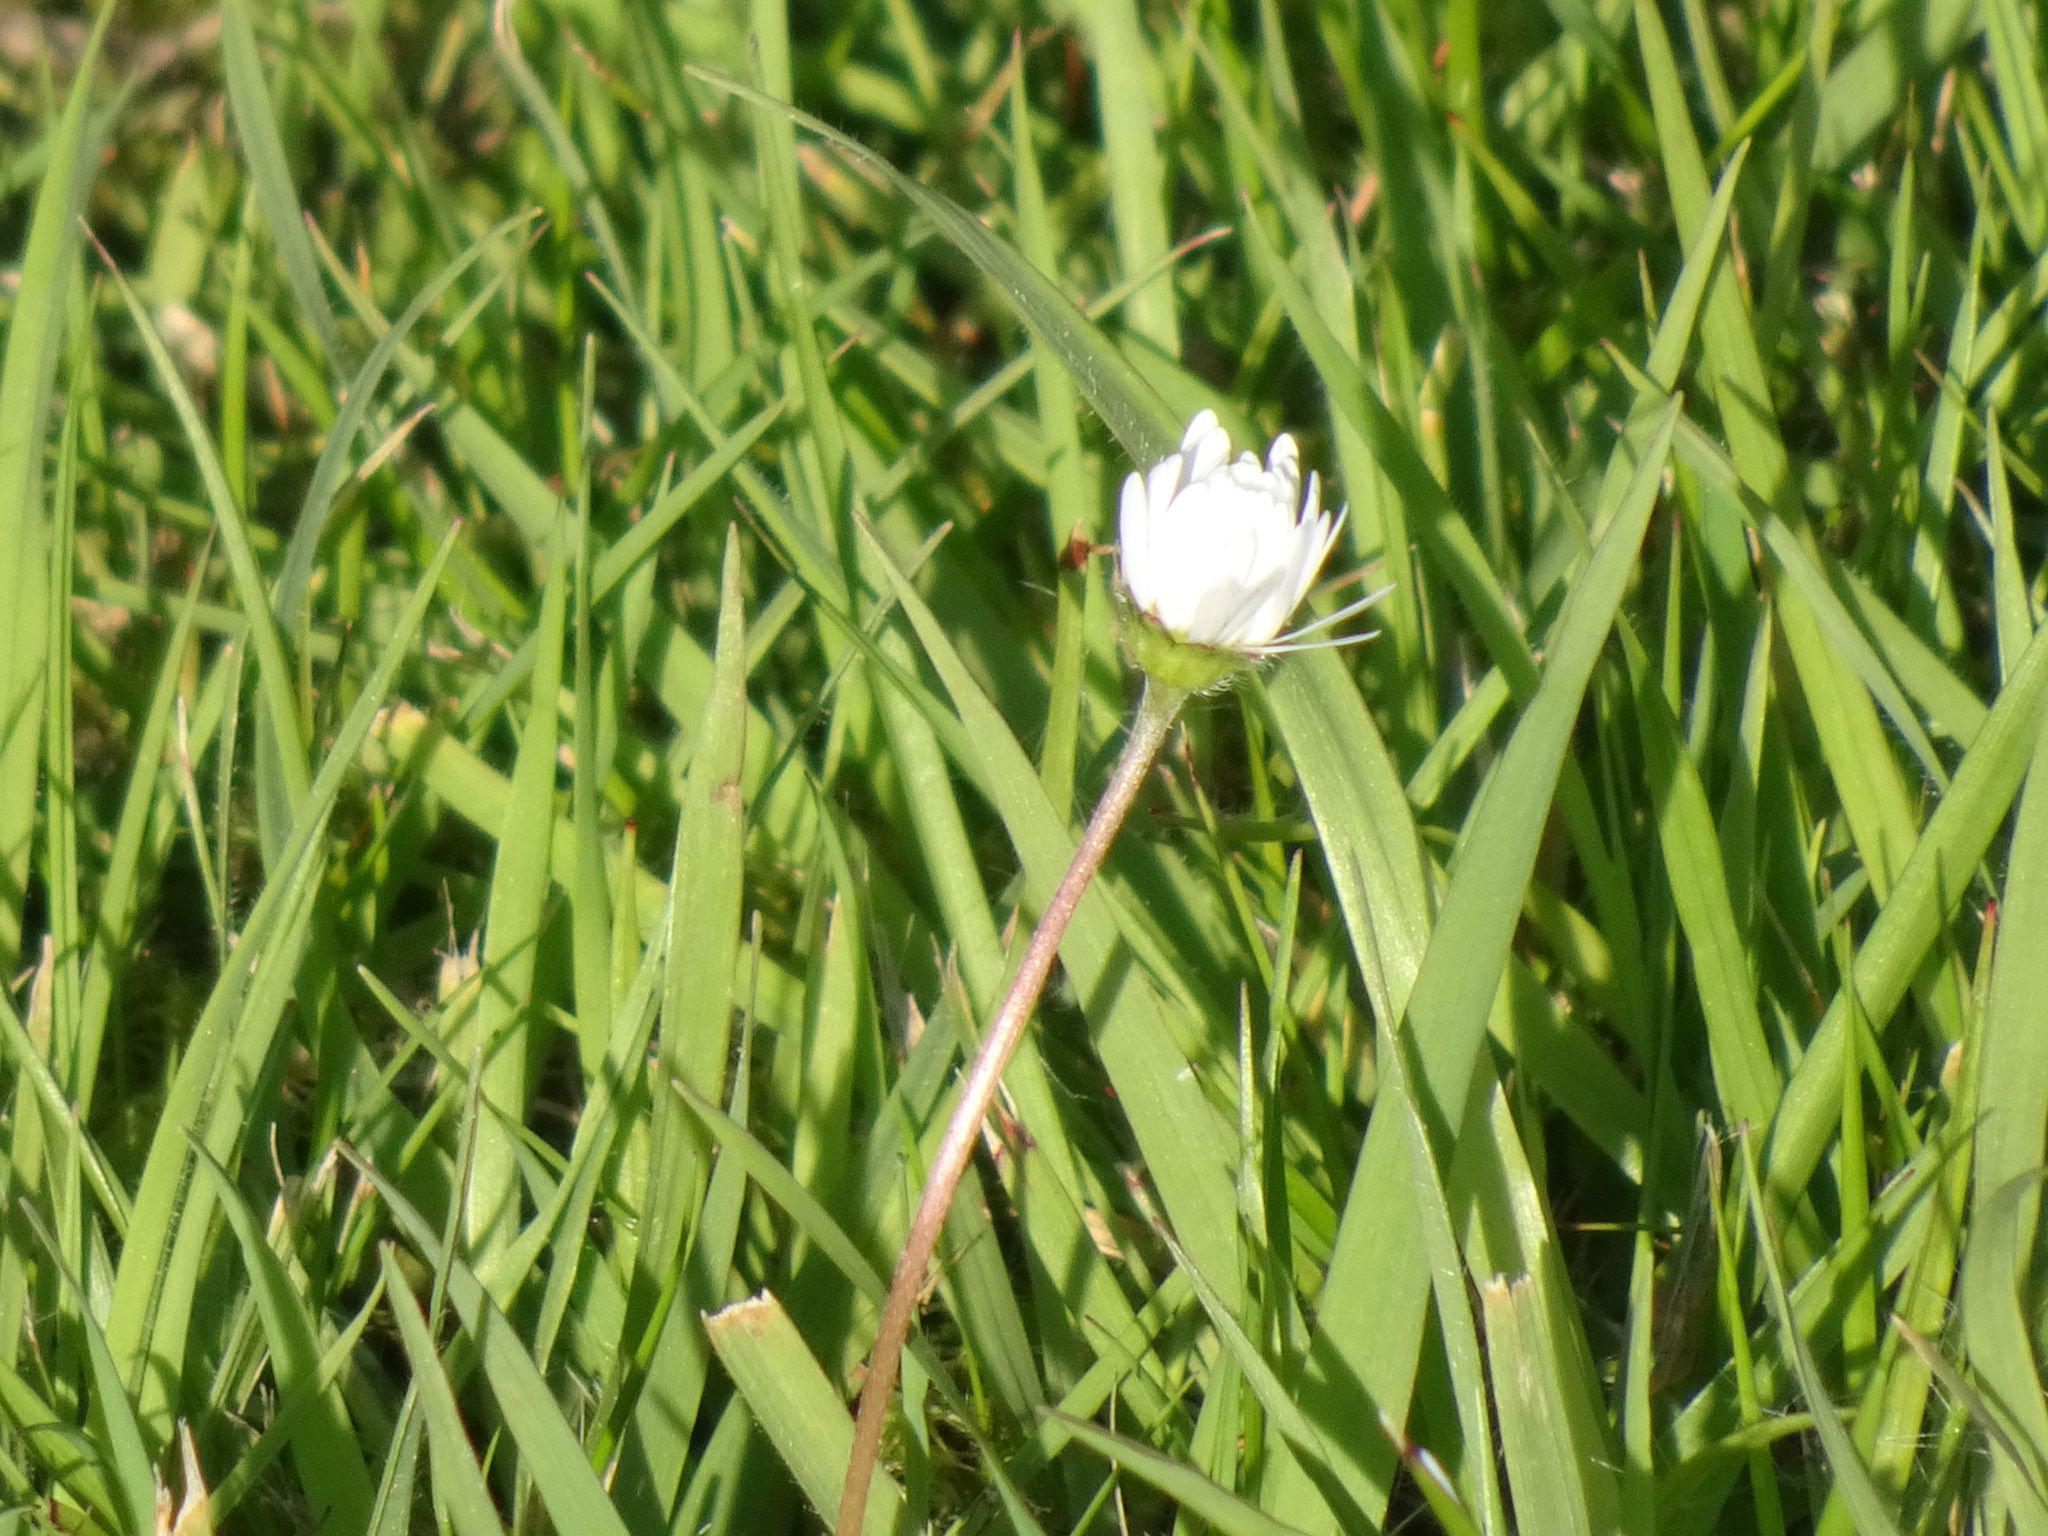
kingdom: Plantae
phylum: Tracheophyta
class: Magnoliopsida
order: Asterales
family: Asteraceae
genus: Bellis
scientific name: Bellis perennis
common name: Lawndaisy
